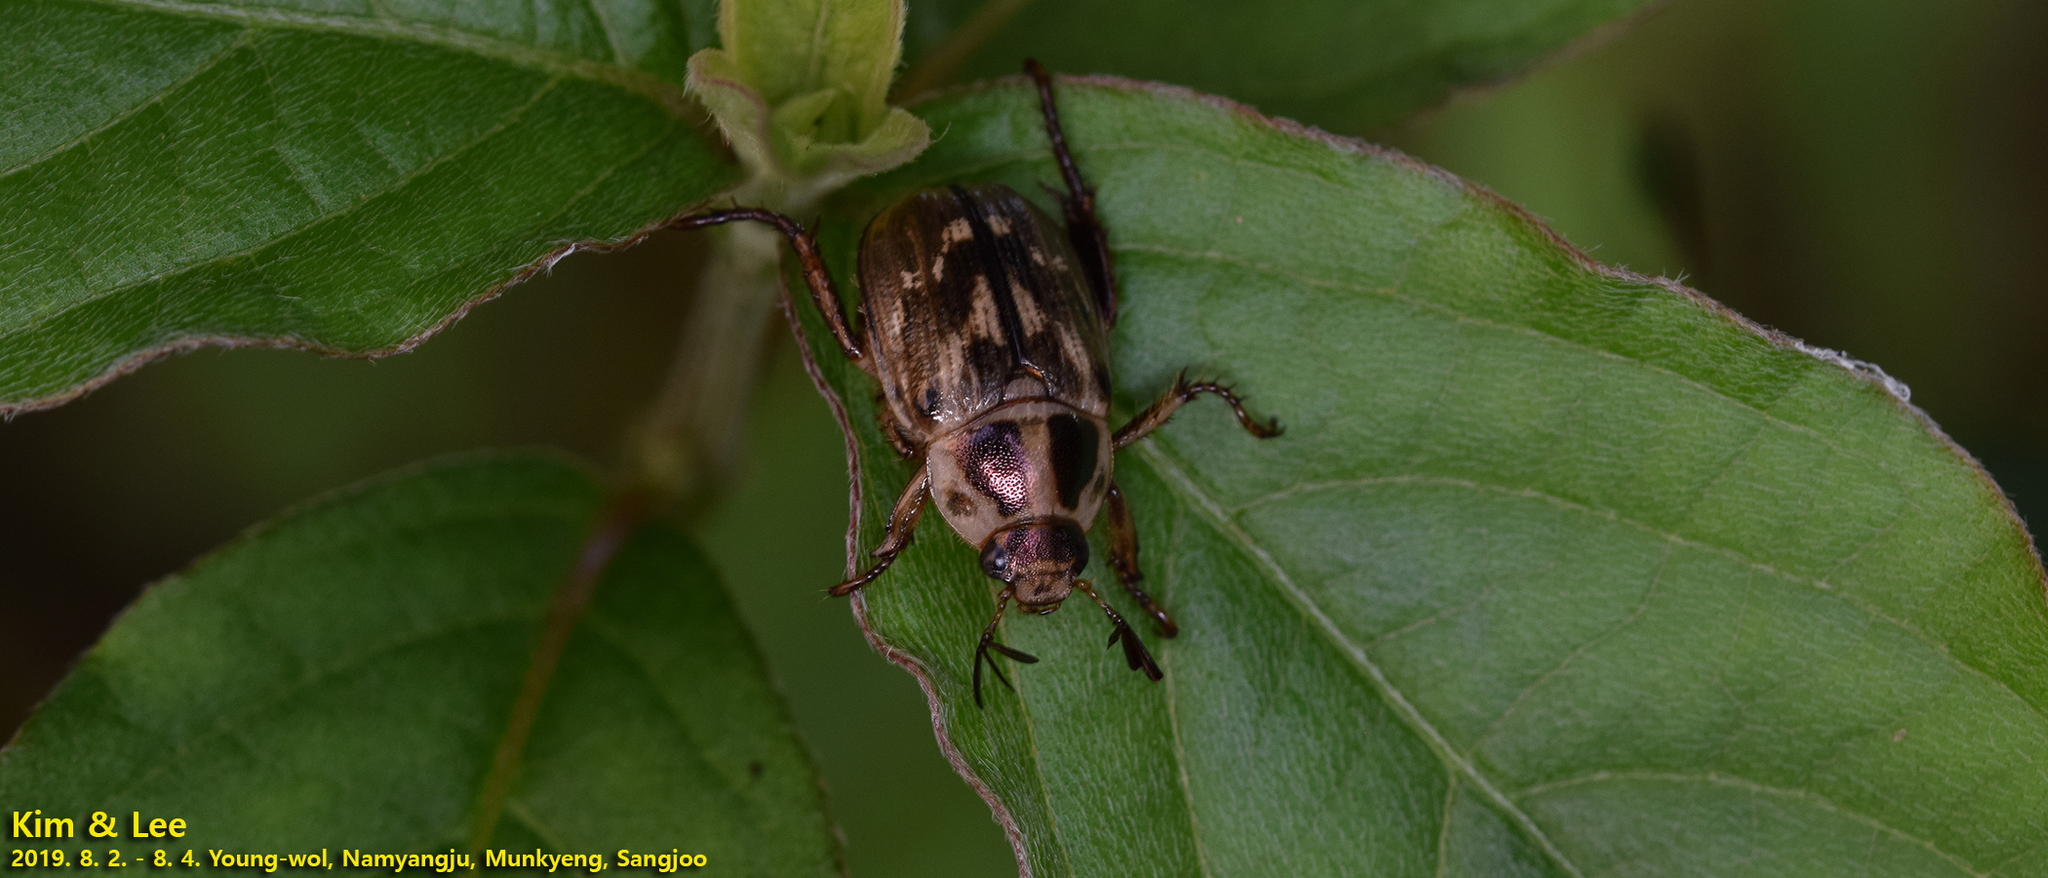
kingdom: Animalia
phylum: Arthropoda
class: Insecta
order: Coleoptera
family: Scarabaeidae
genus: Exomala
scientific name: Exomala orientalis
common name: Oriental beetle
